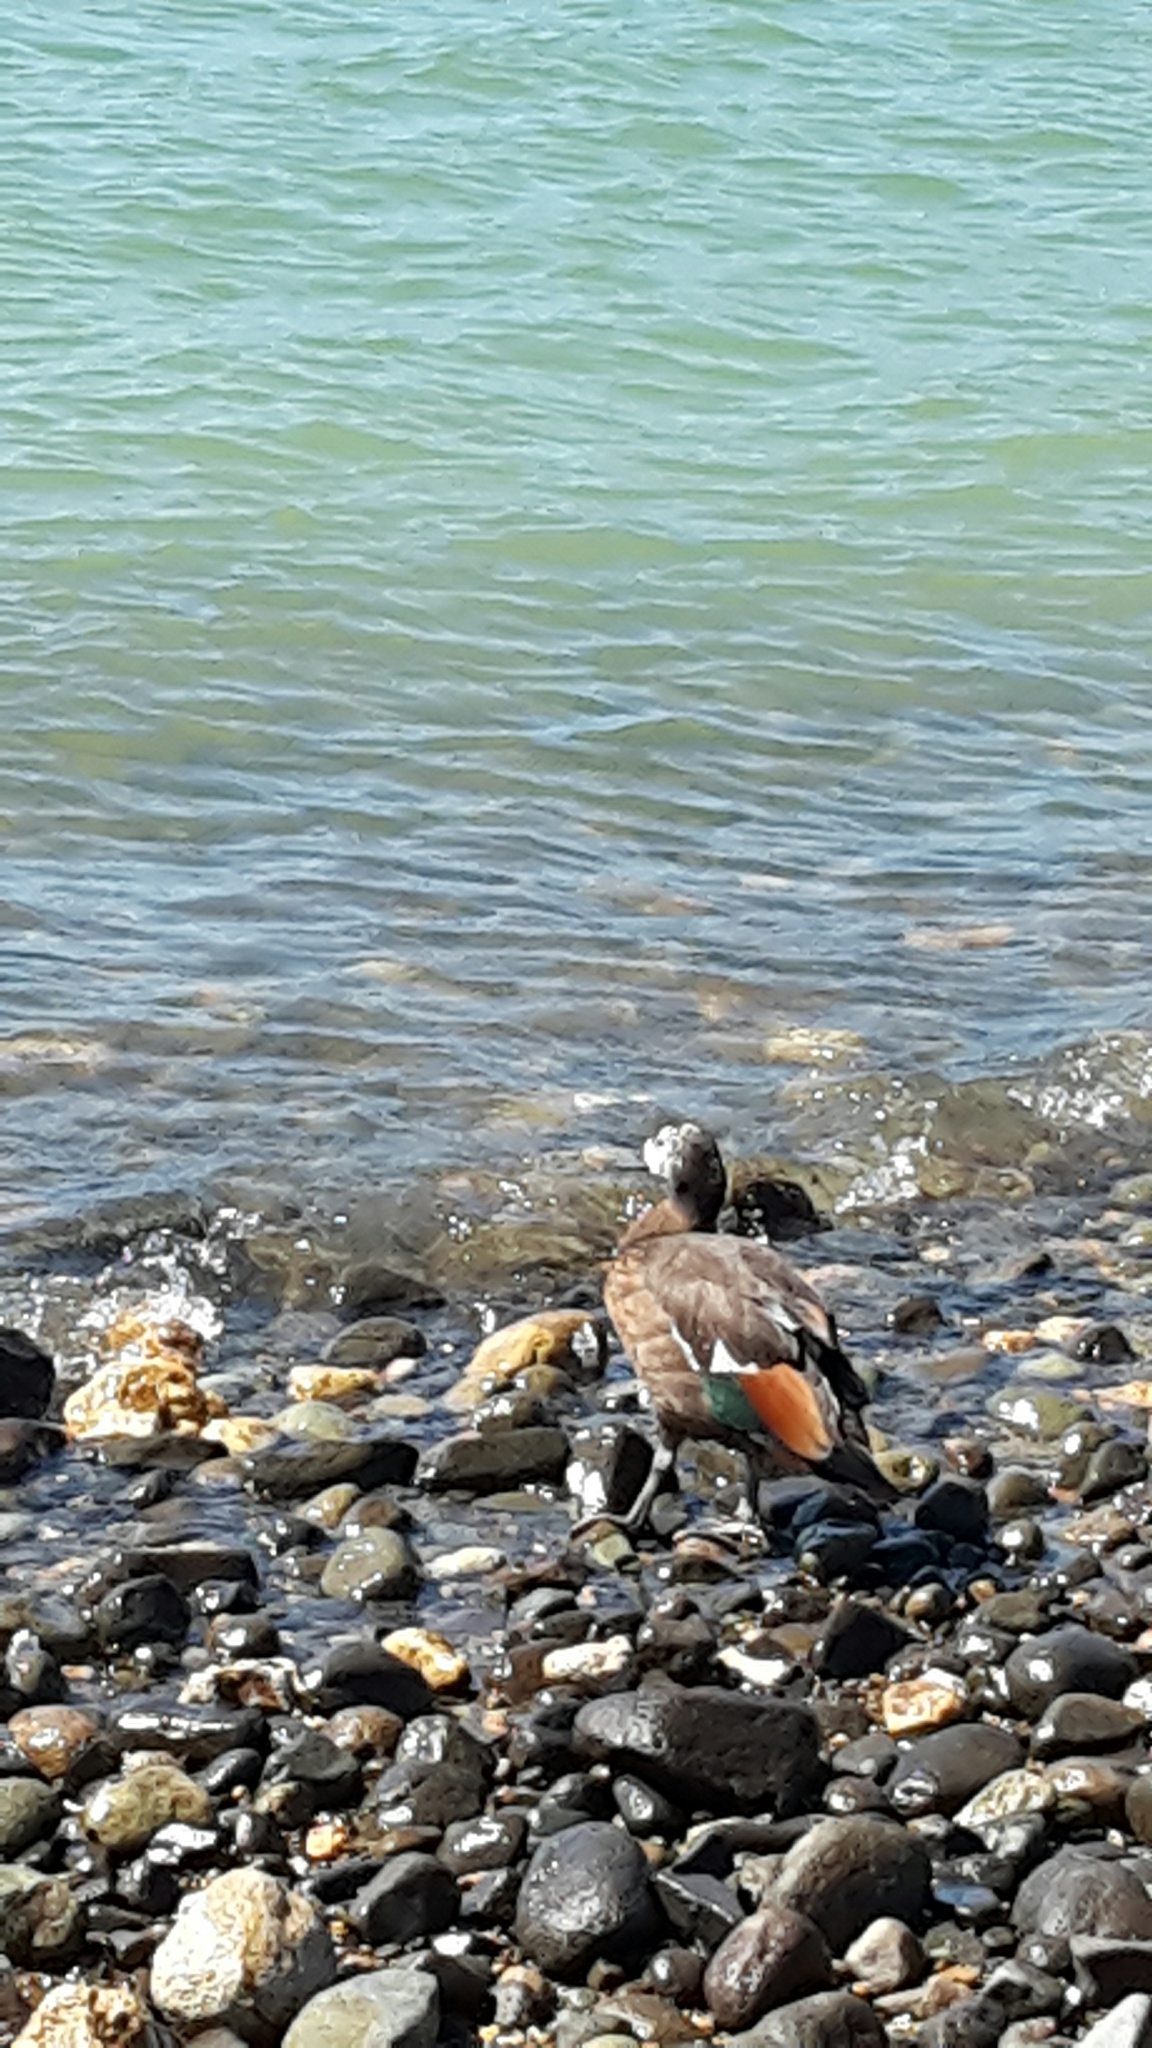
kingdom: Animalia
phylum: Chordata
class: Aves
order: Anseriformes
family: Anatidae
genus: Tadorna
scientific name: Tadorna variegata
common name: Paradise shelduck
